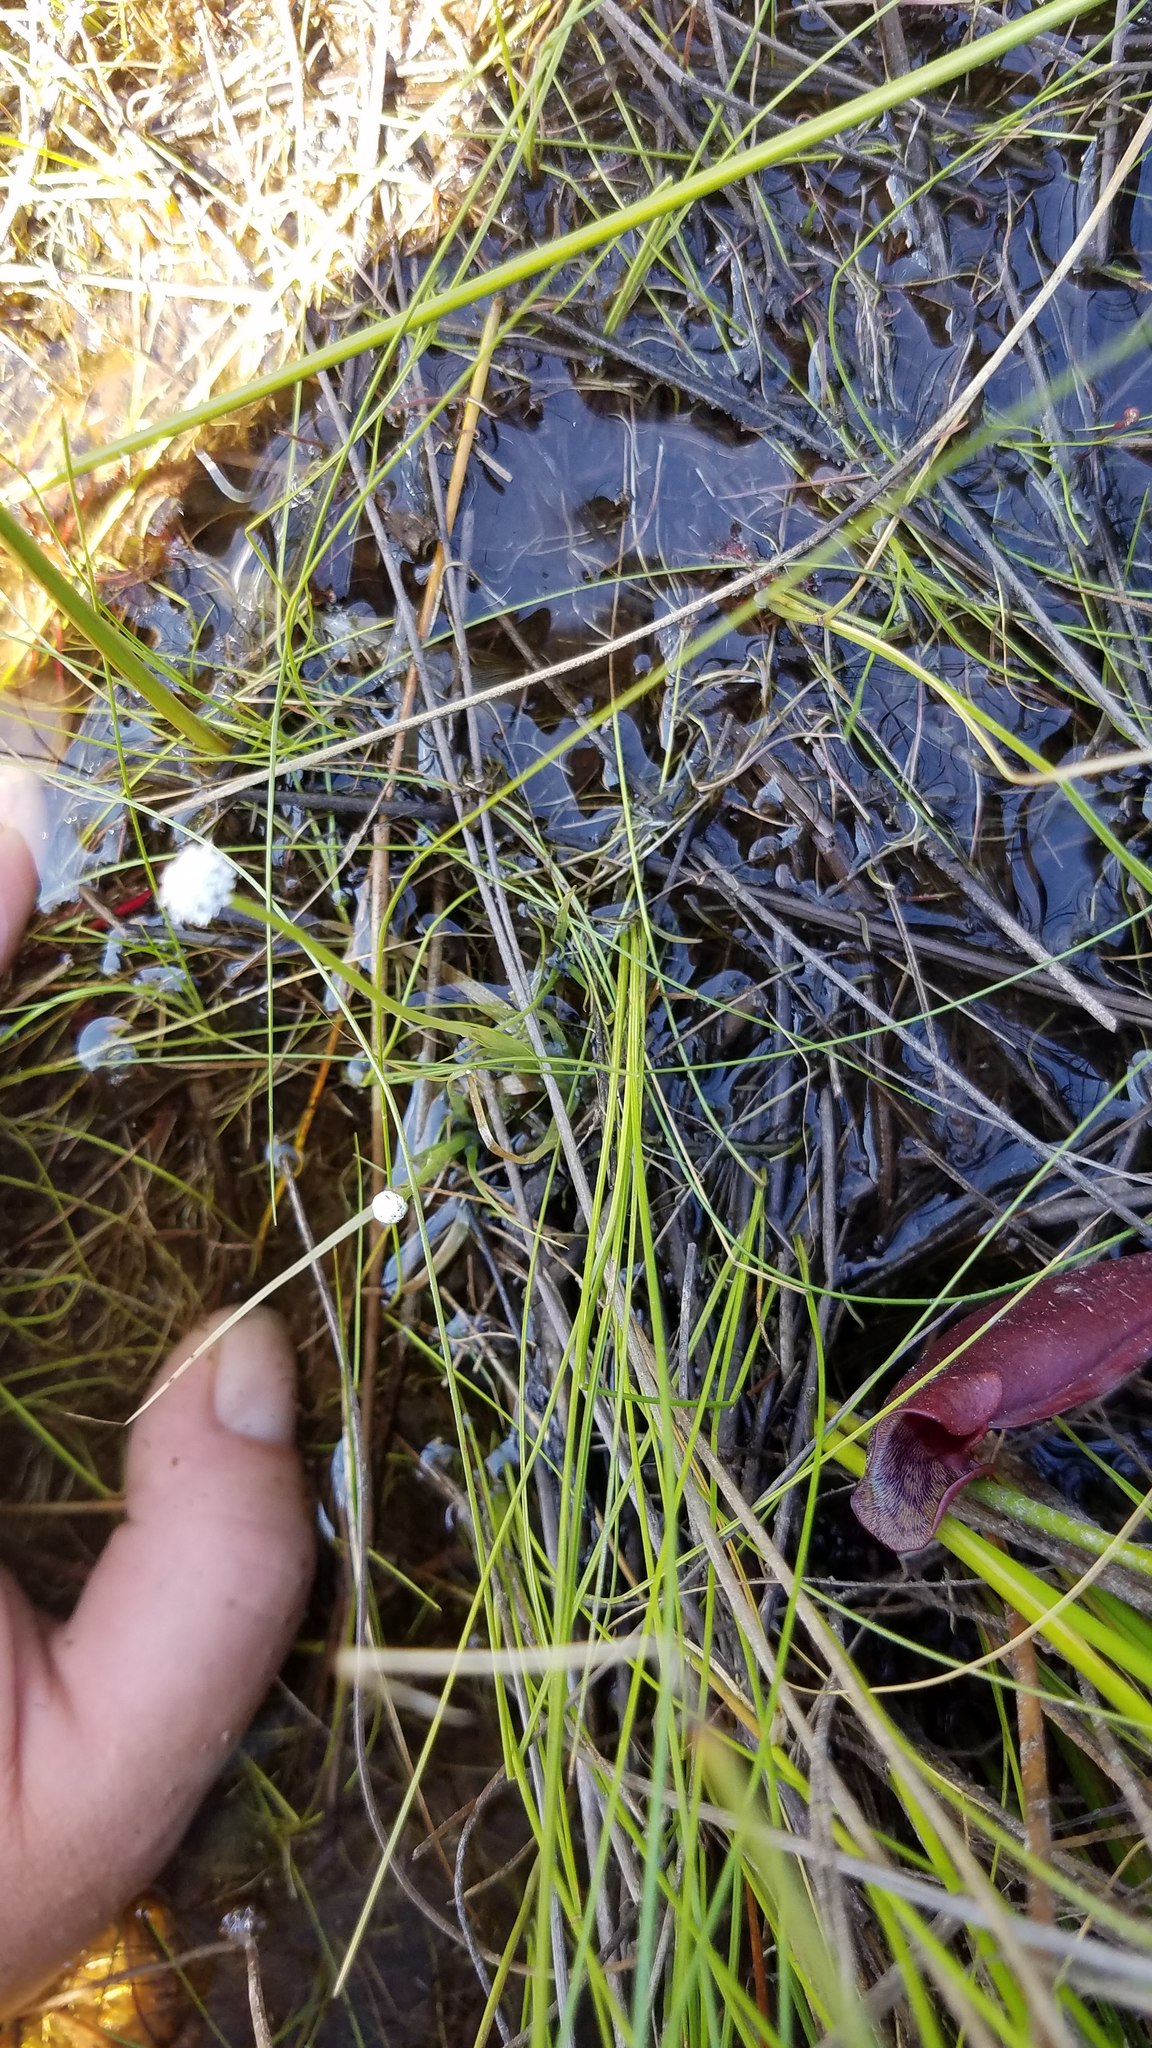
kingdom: Plantae
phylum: Tracheophyta
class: Liliopsida
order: Poales
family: Eriocaulaceae
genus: Eriocaulon
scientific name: Eriocaulon aquaticum
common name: Pipewort
